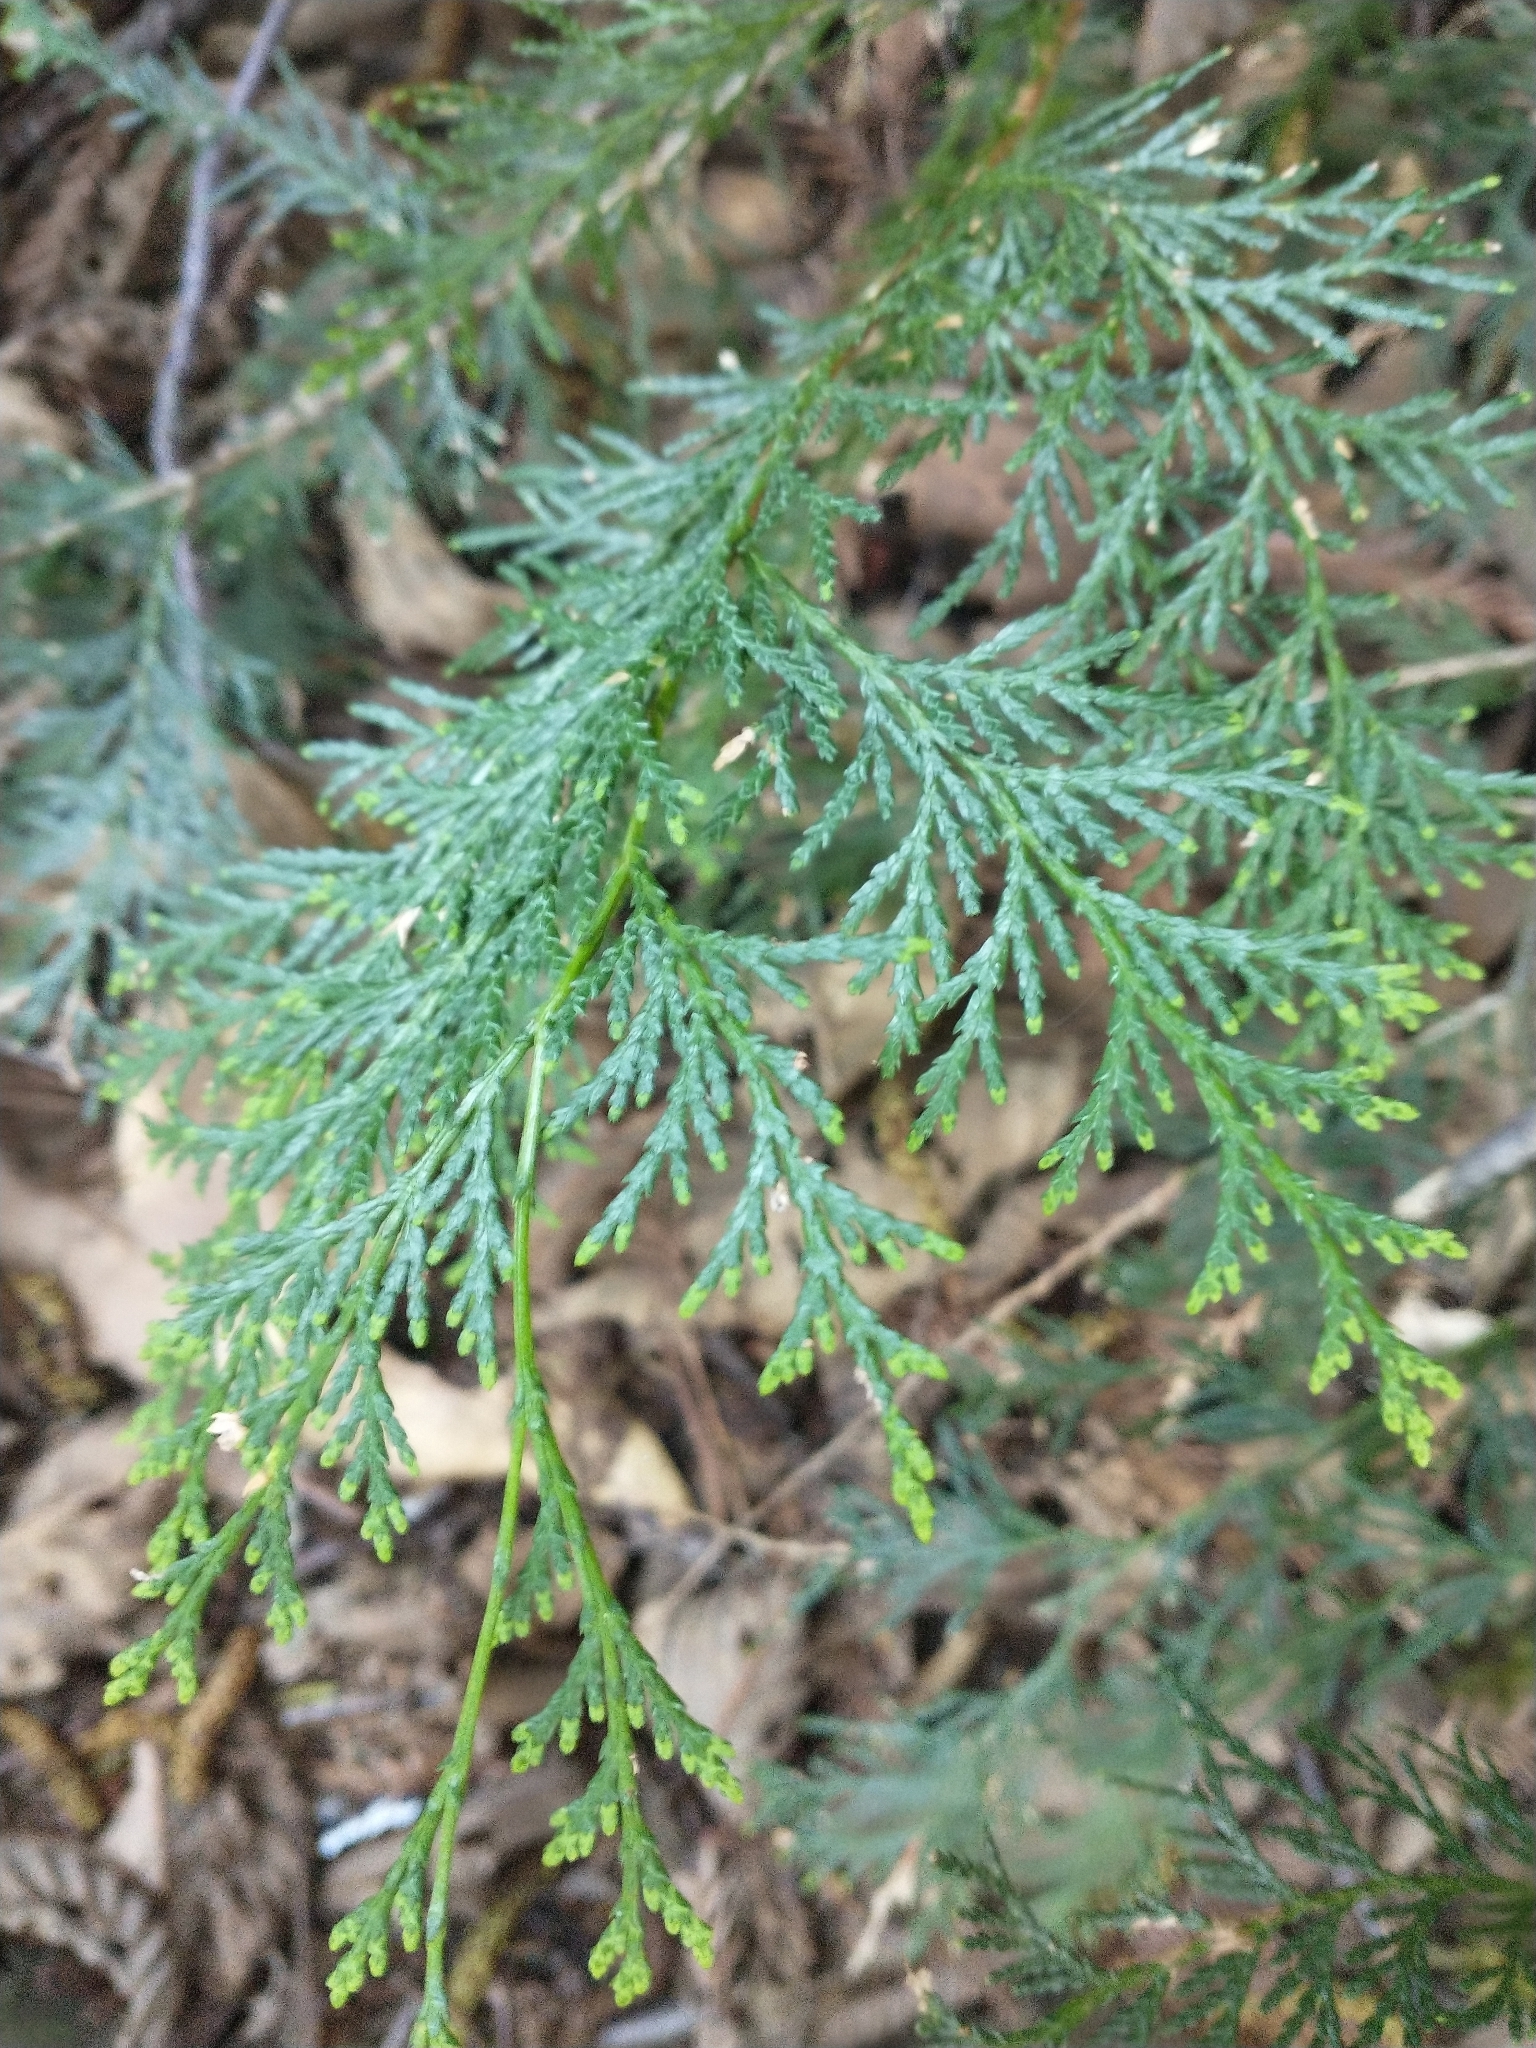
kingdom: Plantae
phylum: Tracheophyta
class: Pinopsida
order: Pinales
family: Cupressaceae
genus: Chamaecyparis
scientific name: Chamaecyparis lawsoniana
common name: Lawson's cypress
